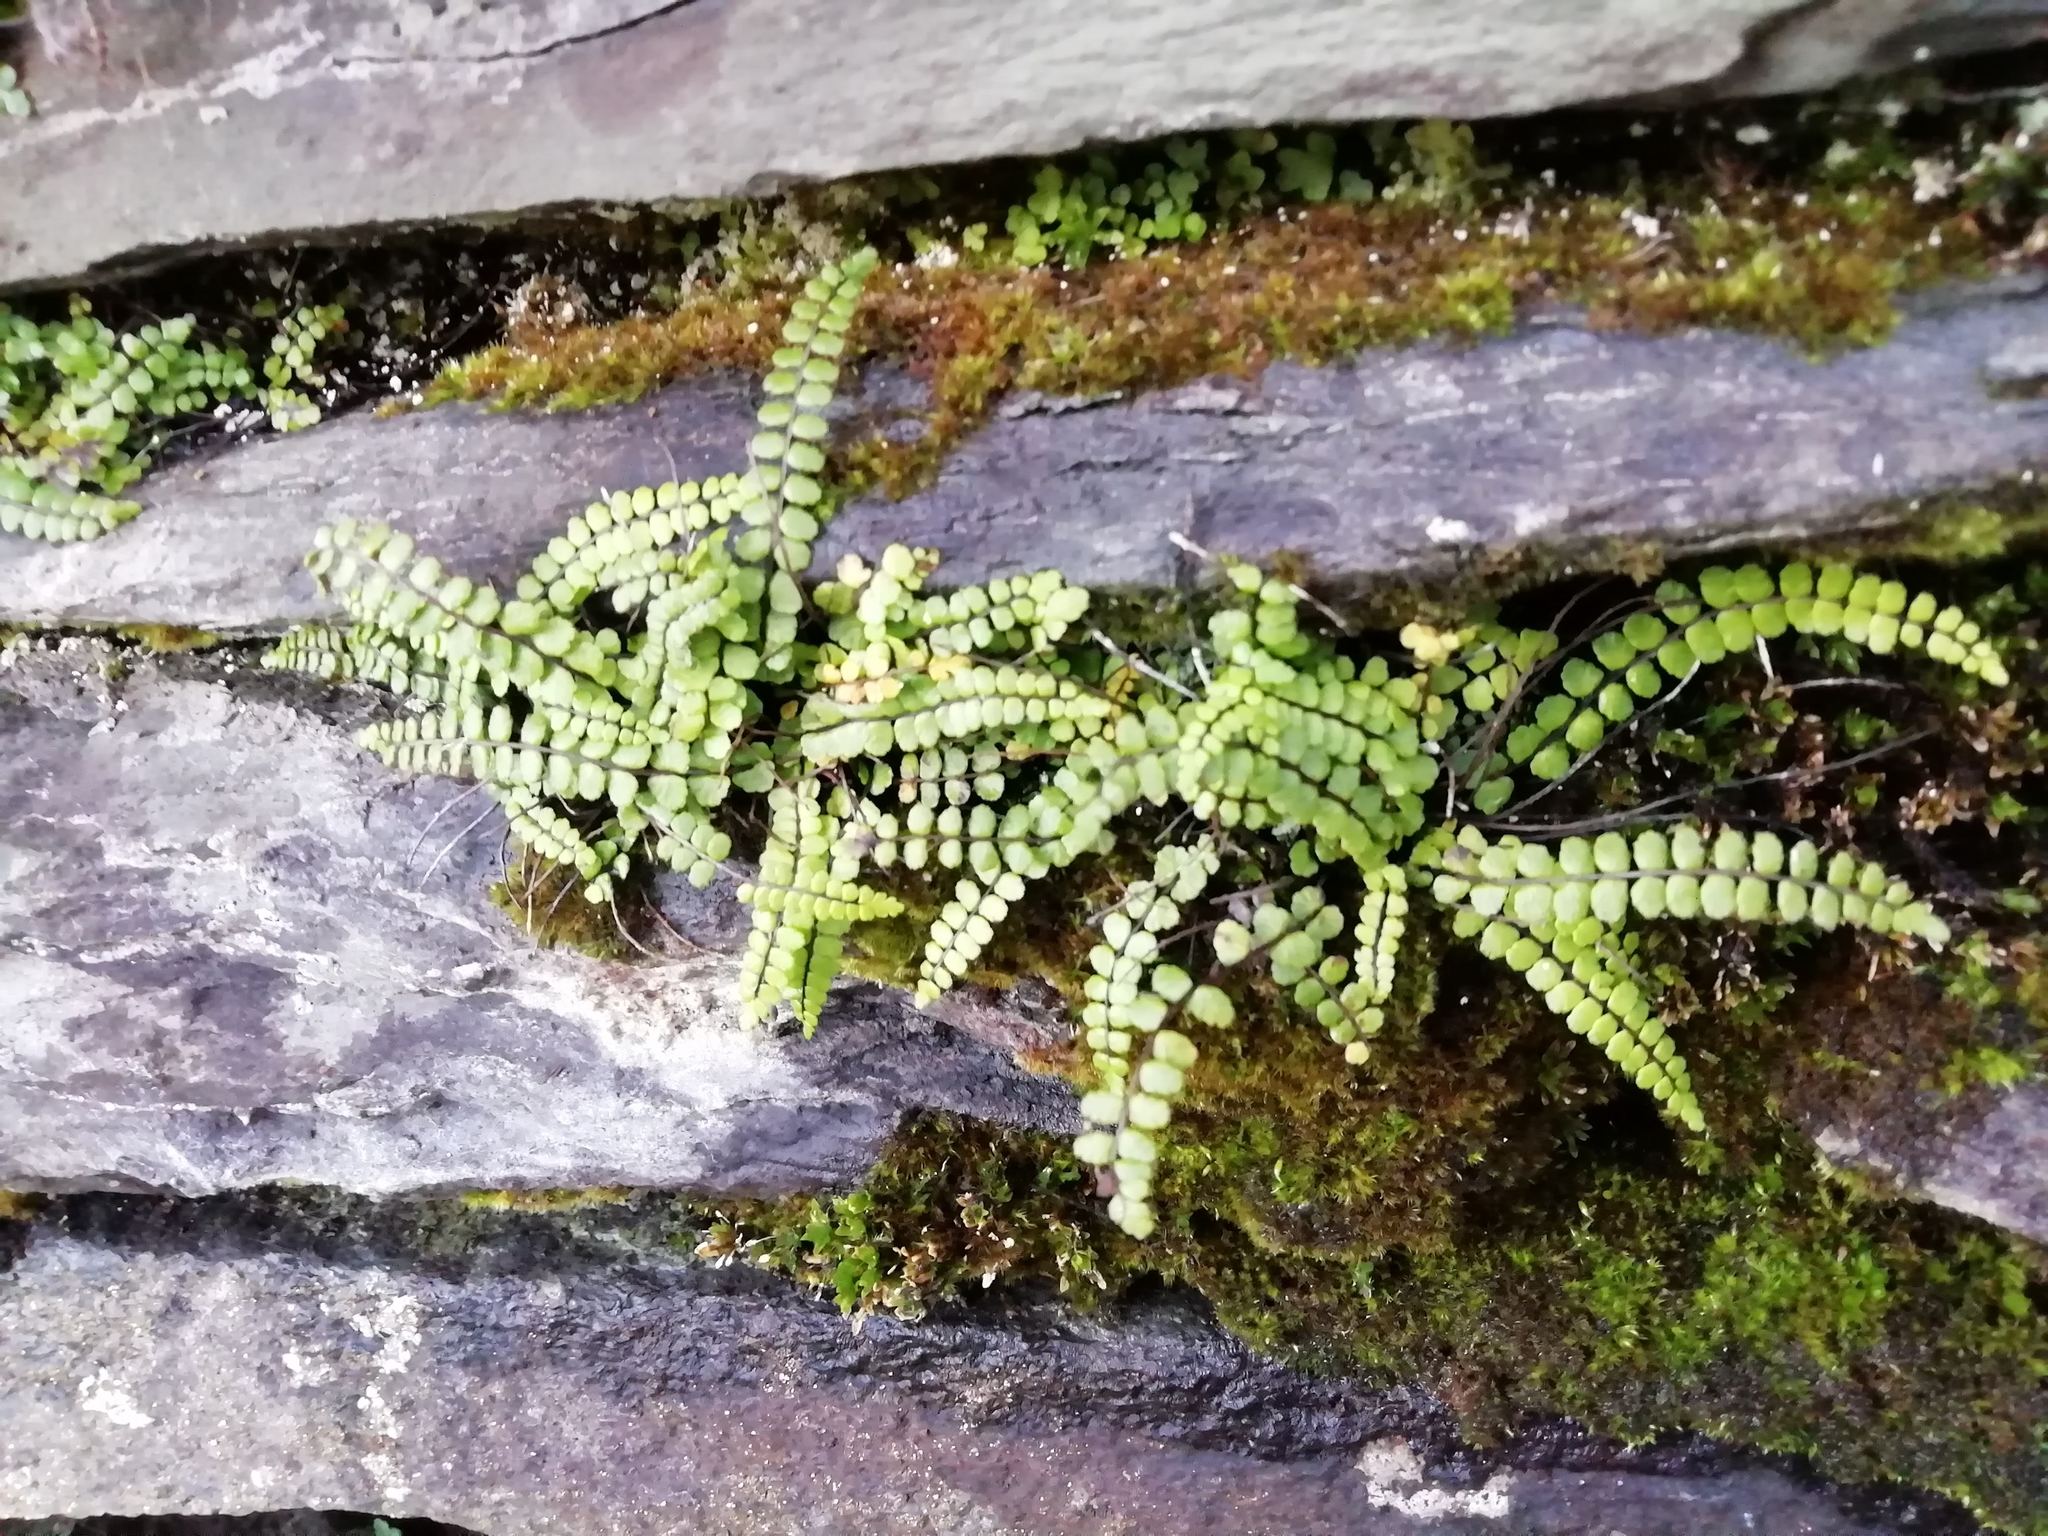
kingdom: Plantae
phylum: Tracheophyta
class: Polypodiopsida
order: Polypodiales
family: Aspleniaceae
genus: Asplenium
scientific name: Asplenium trichomanes
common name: Maidenhair spleenwort
